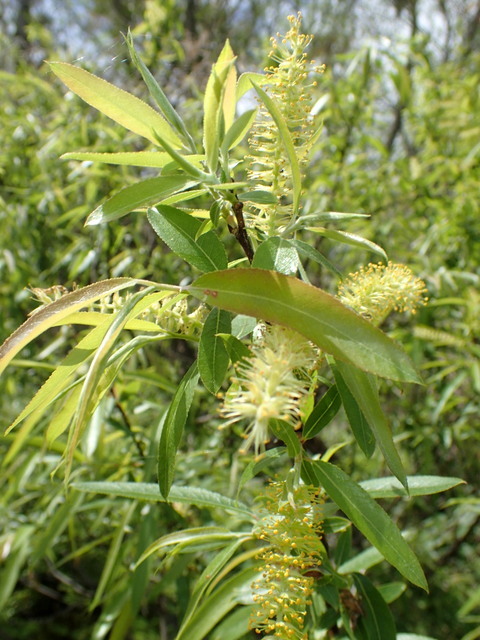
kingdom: Plantae
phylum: Tracheophyta
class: Magnoliopsida
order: Malpighiales
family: Salicaceae
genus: Salix
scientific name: Salix caroliniana
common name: Carolina willow
